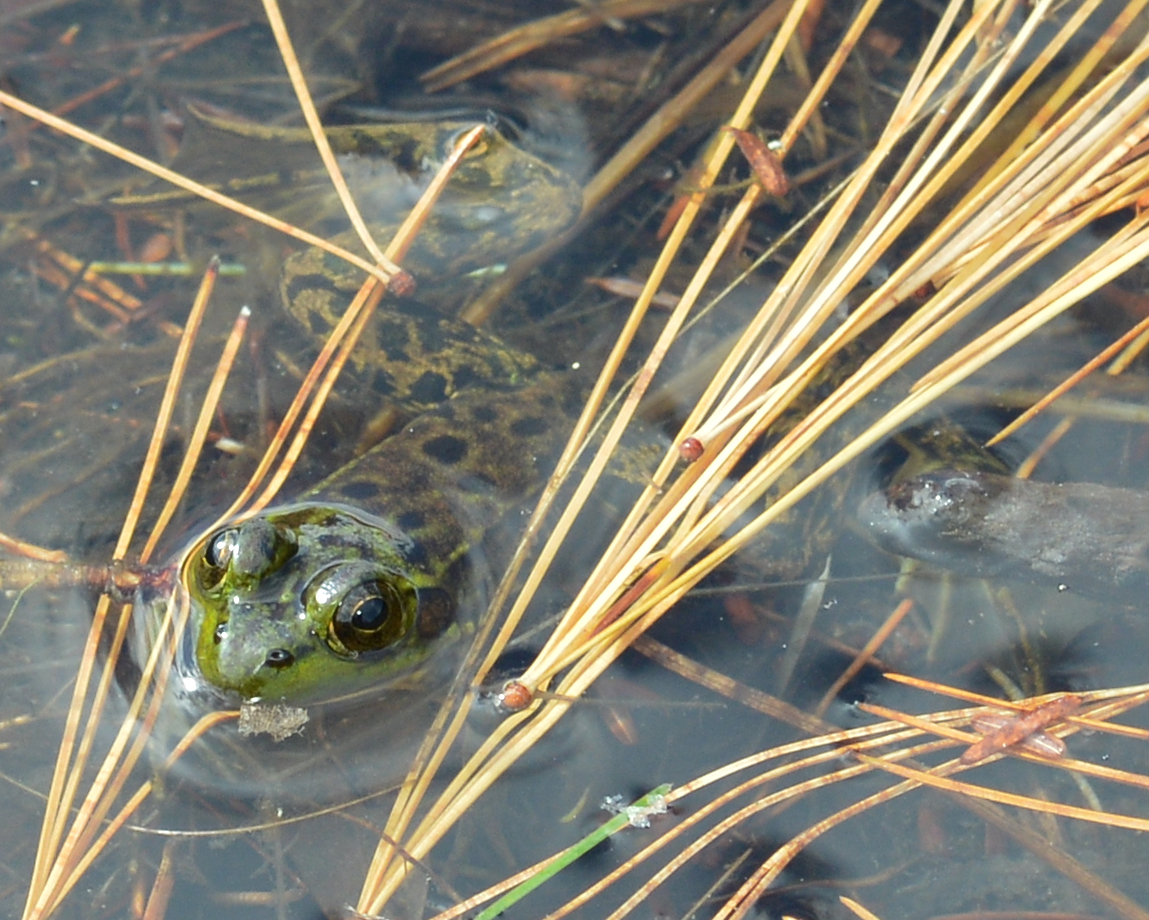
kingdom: Animalia
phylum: Chordata
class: Amphibia
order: Anura
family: Ranidae
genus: Lithobates
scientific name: Lithobates septentrionalis
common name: Mink frog
